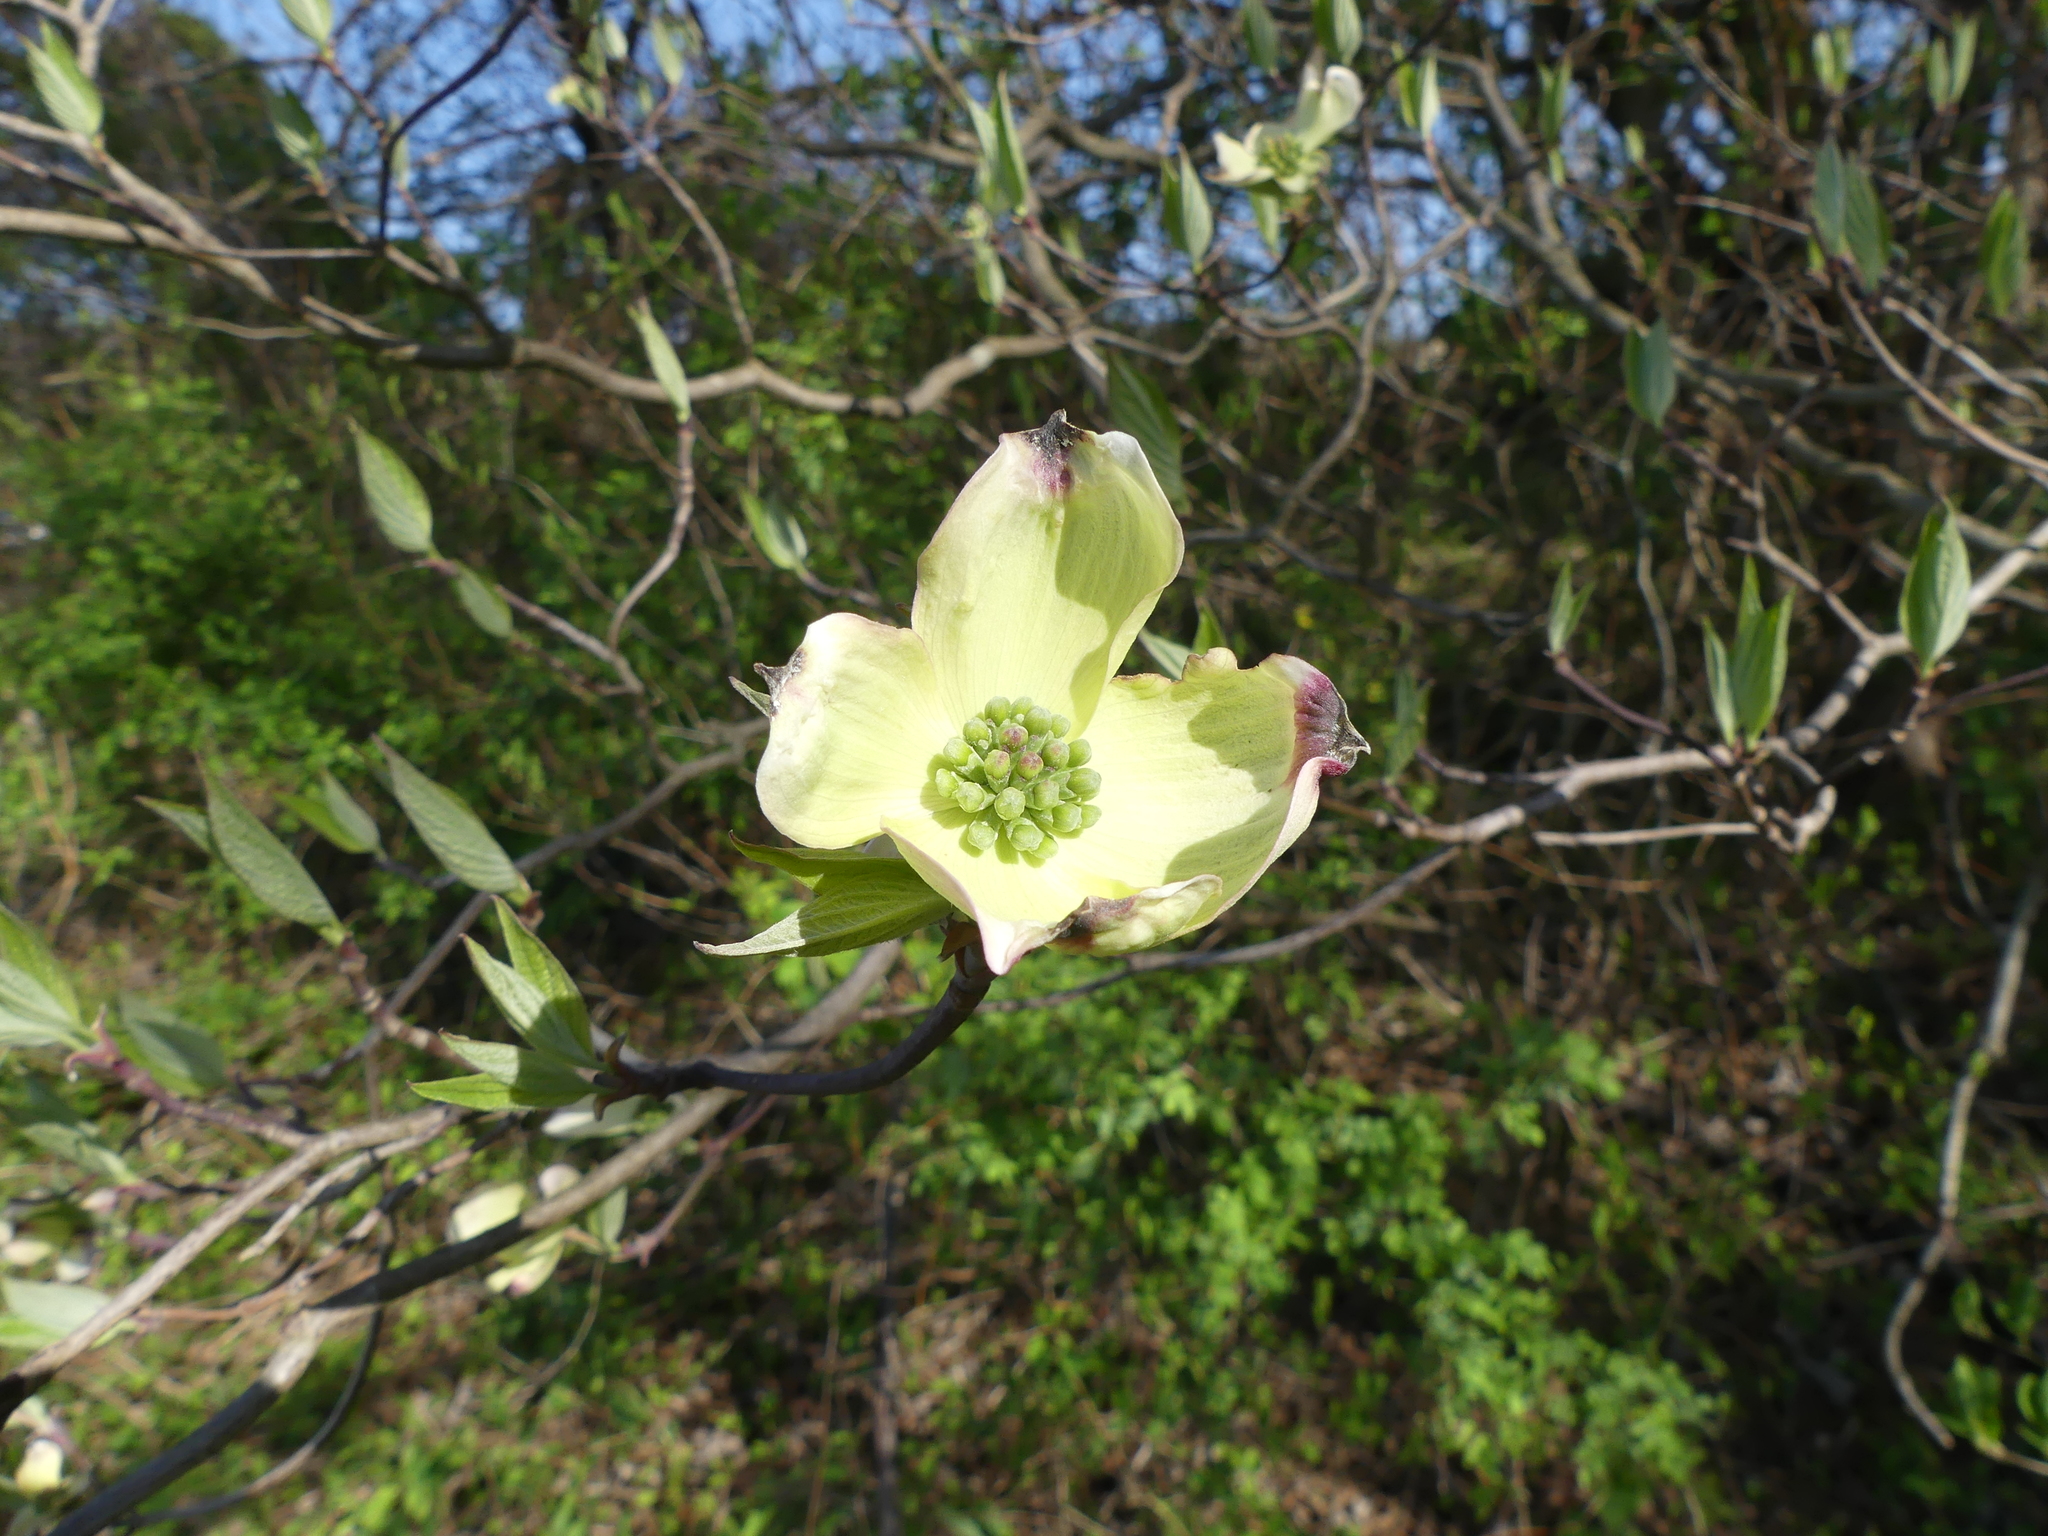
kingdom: Plantae
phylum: Tracheophyta
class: Magnoliopsida
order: Cornales
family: Cornaceae
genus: Cornus
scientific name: Cornus florida
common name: Flowering dogwood
